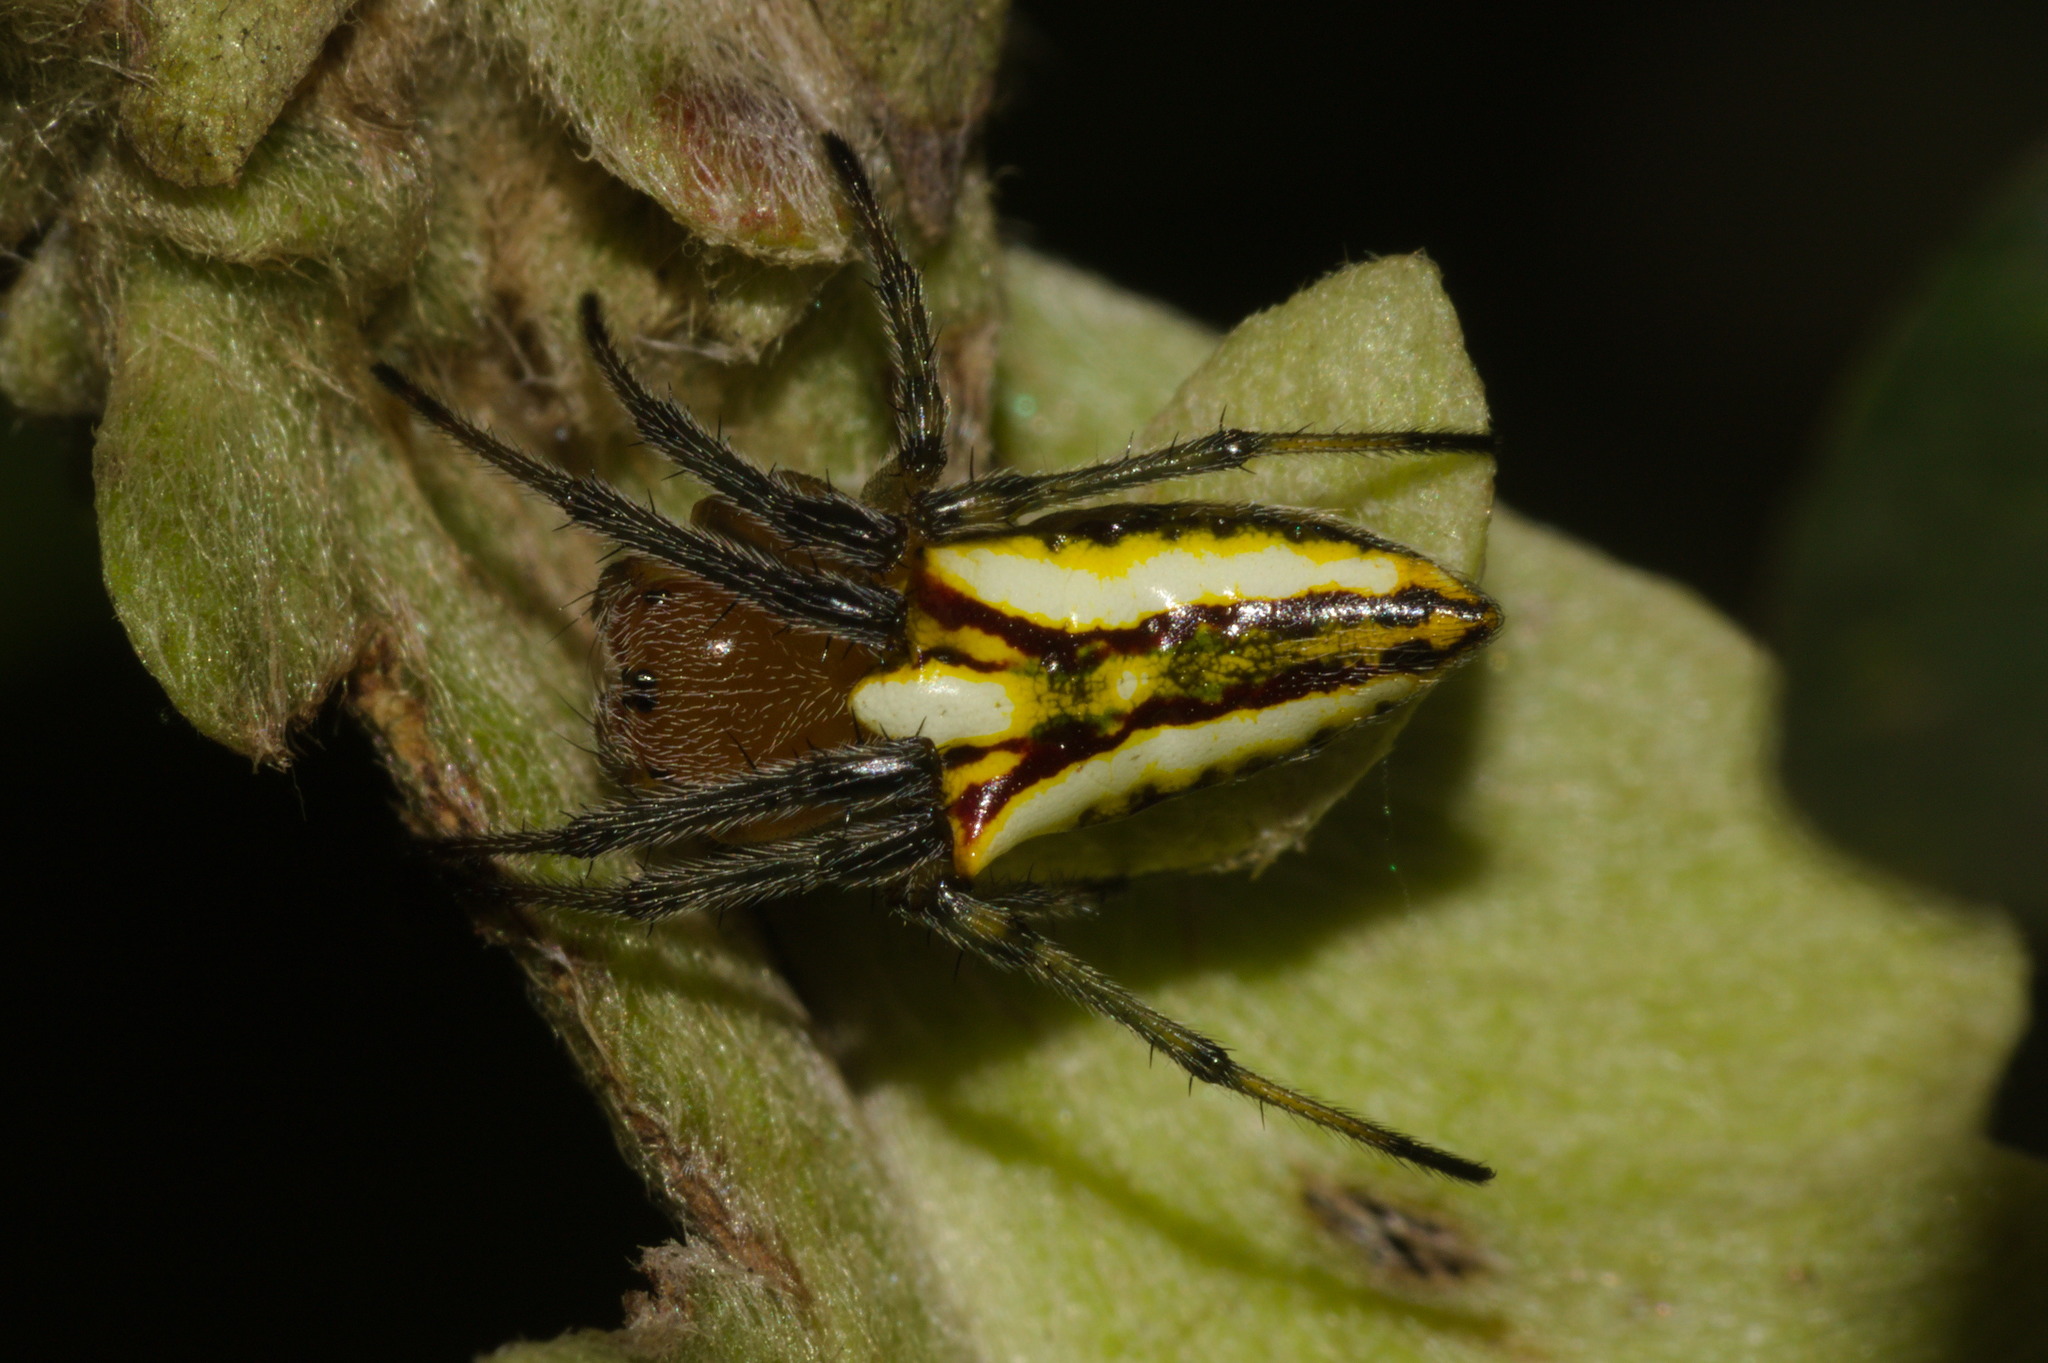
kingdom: Animalia
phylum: Arthropoda
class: Arachnida
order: Araneae
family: Araneidae
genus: Alpaida
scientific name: Alpaida bicornuta
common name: Orb weavers
